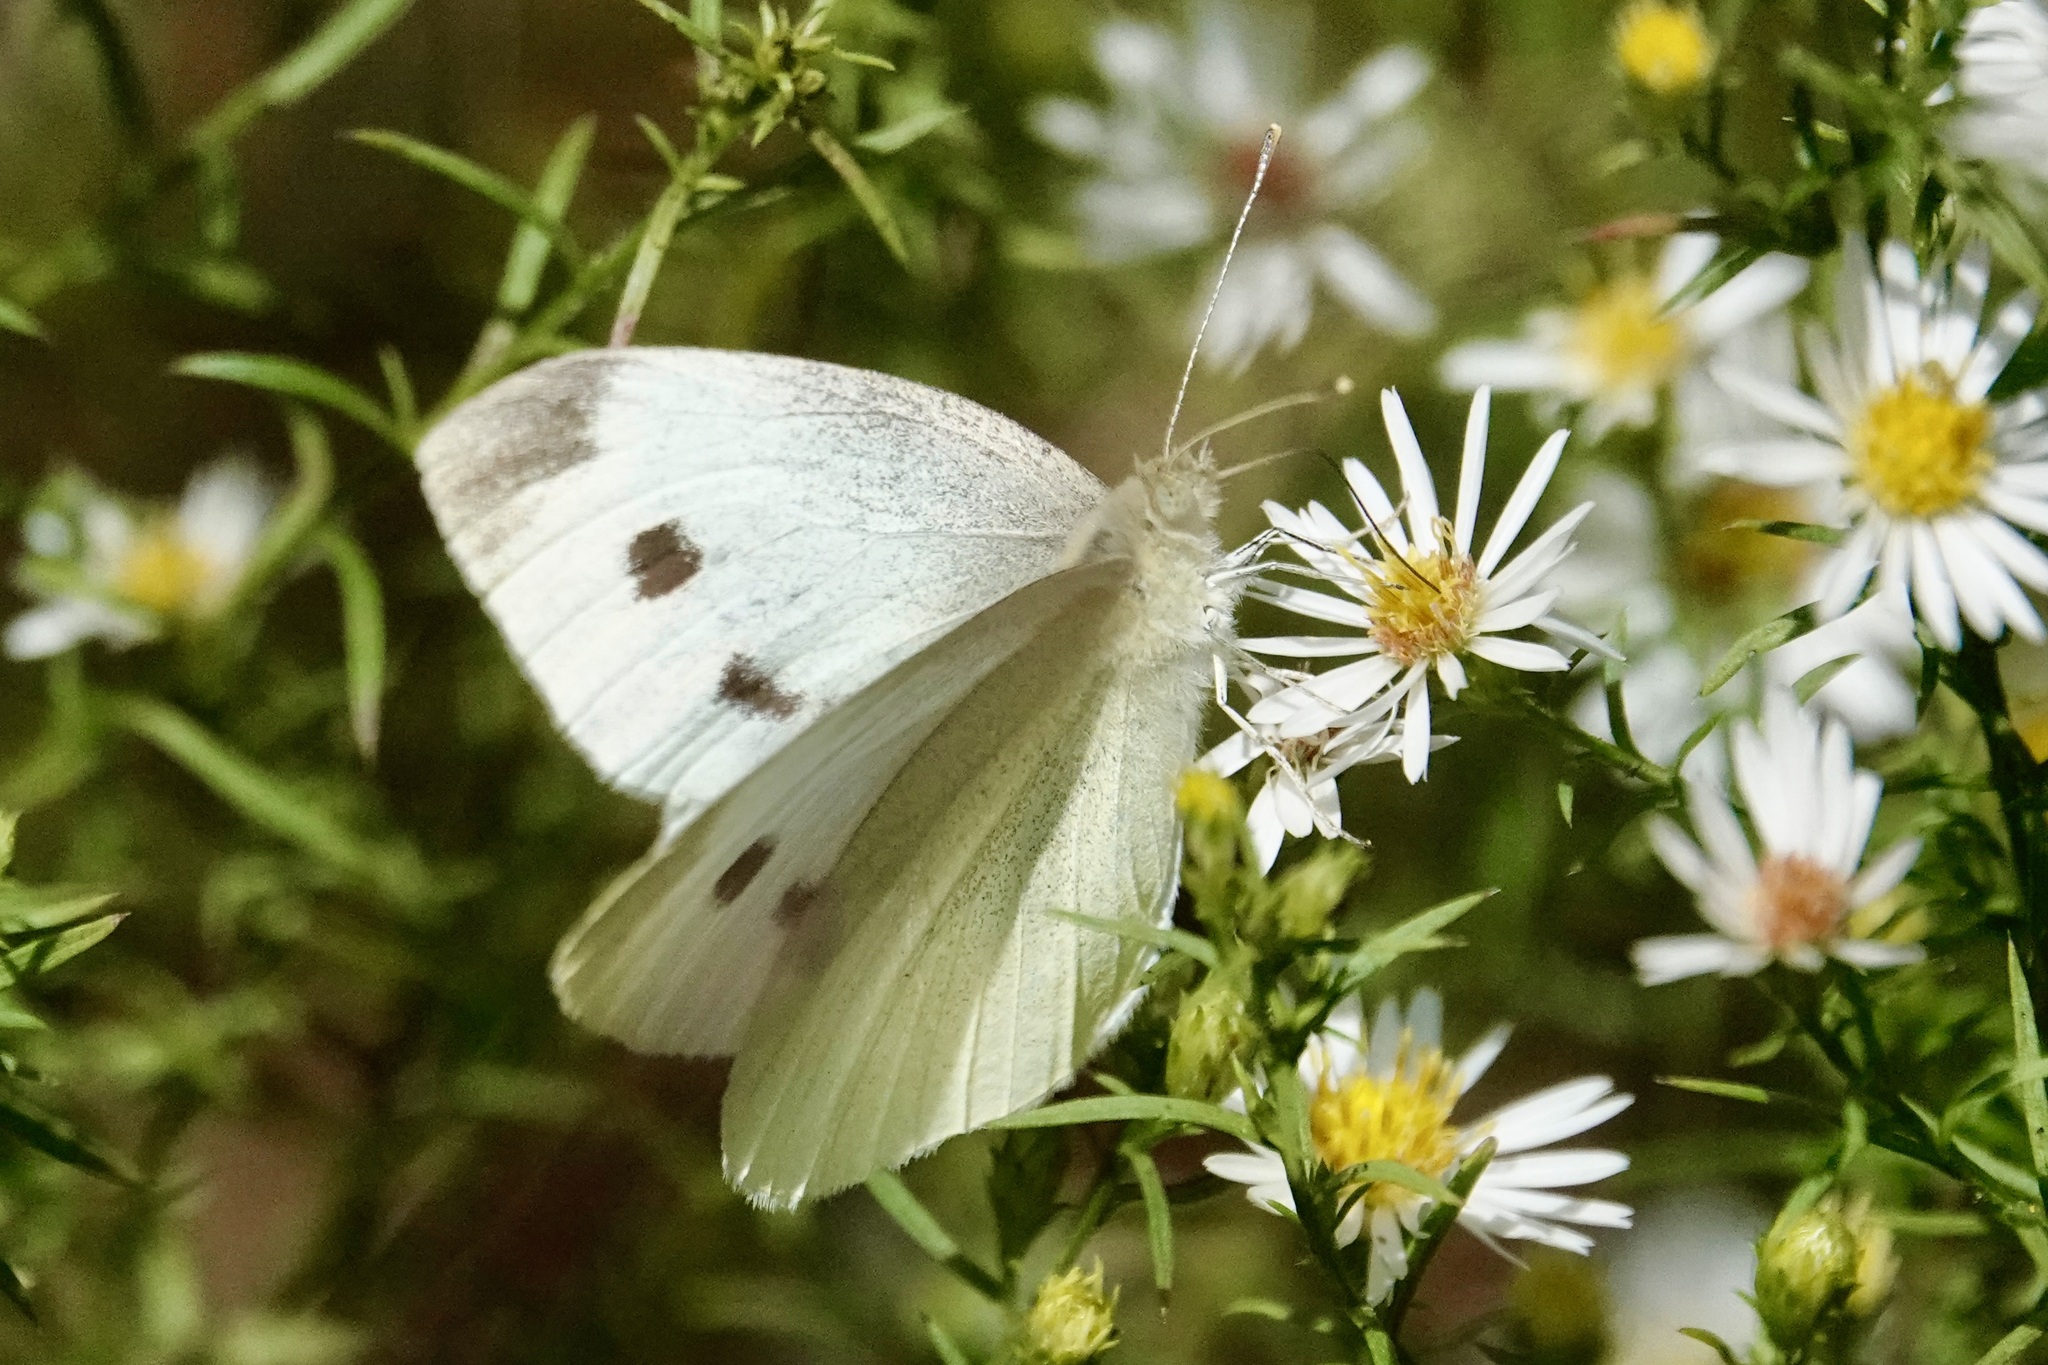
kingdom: Animalia
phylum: Arthropoda
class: Insecta
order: Lepidoptera
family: Pieridae
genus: Pieris
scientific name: Pieris rapae
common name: Small white
